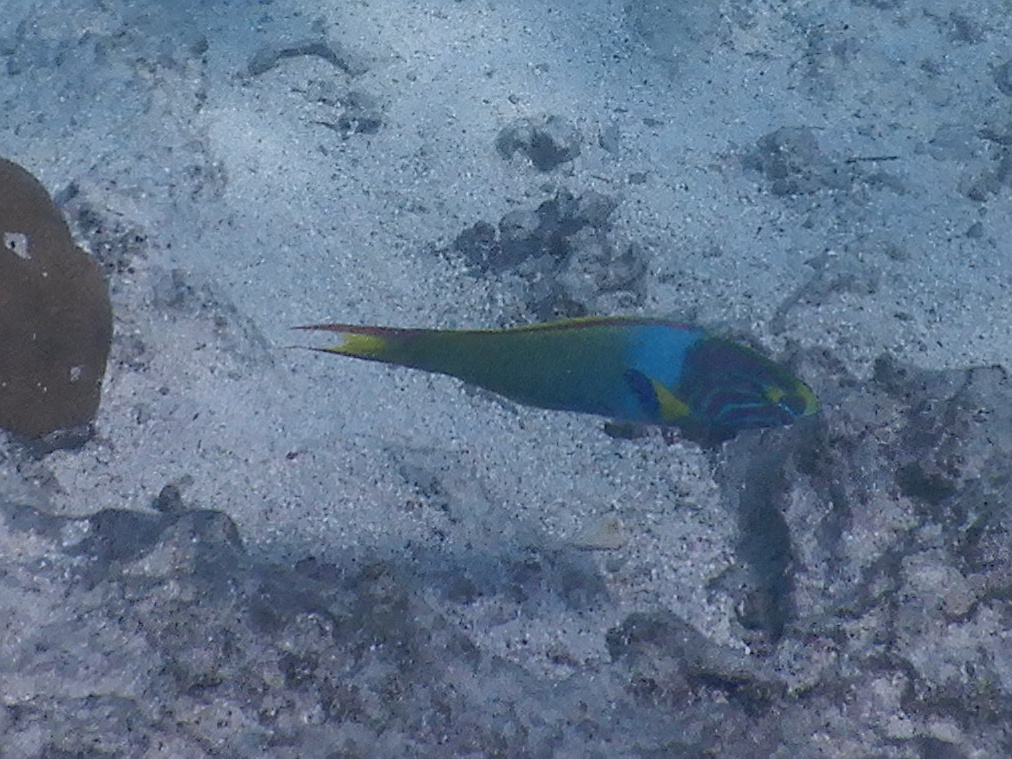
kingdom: Animalia
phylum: Chordata
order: Perciformes
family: Labridae
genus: Thalassoma
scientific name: Thalassoma lutescens
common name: Green moon wrasse
